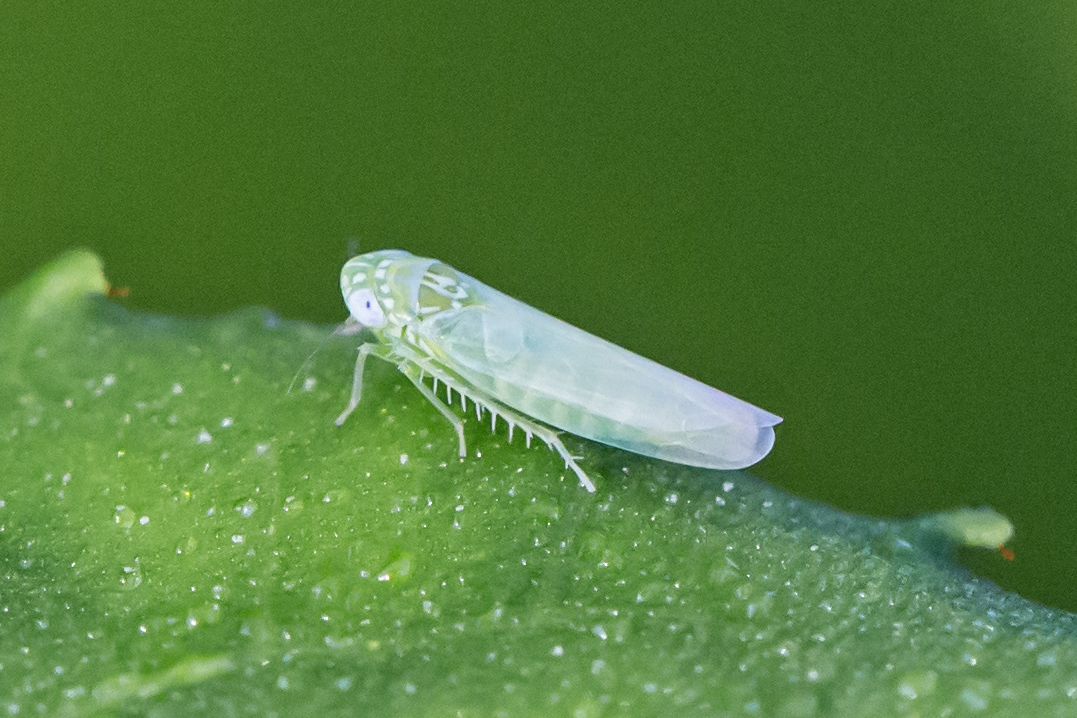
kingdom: Animalia
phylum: Arthropoda
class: Insecta
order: Hemiptera
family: Cicadellidae
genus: Empoasca
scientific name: Empoasca fabae
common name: Potato leafhopper
